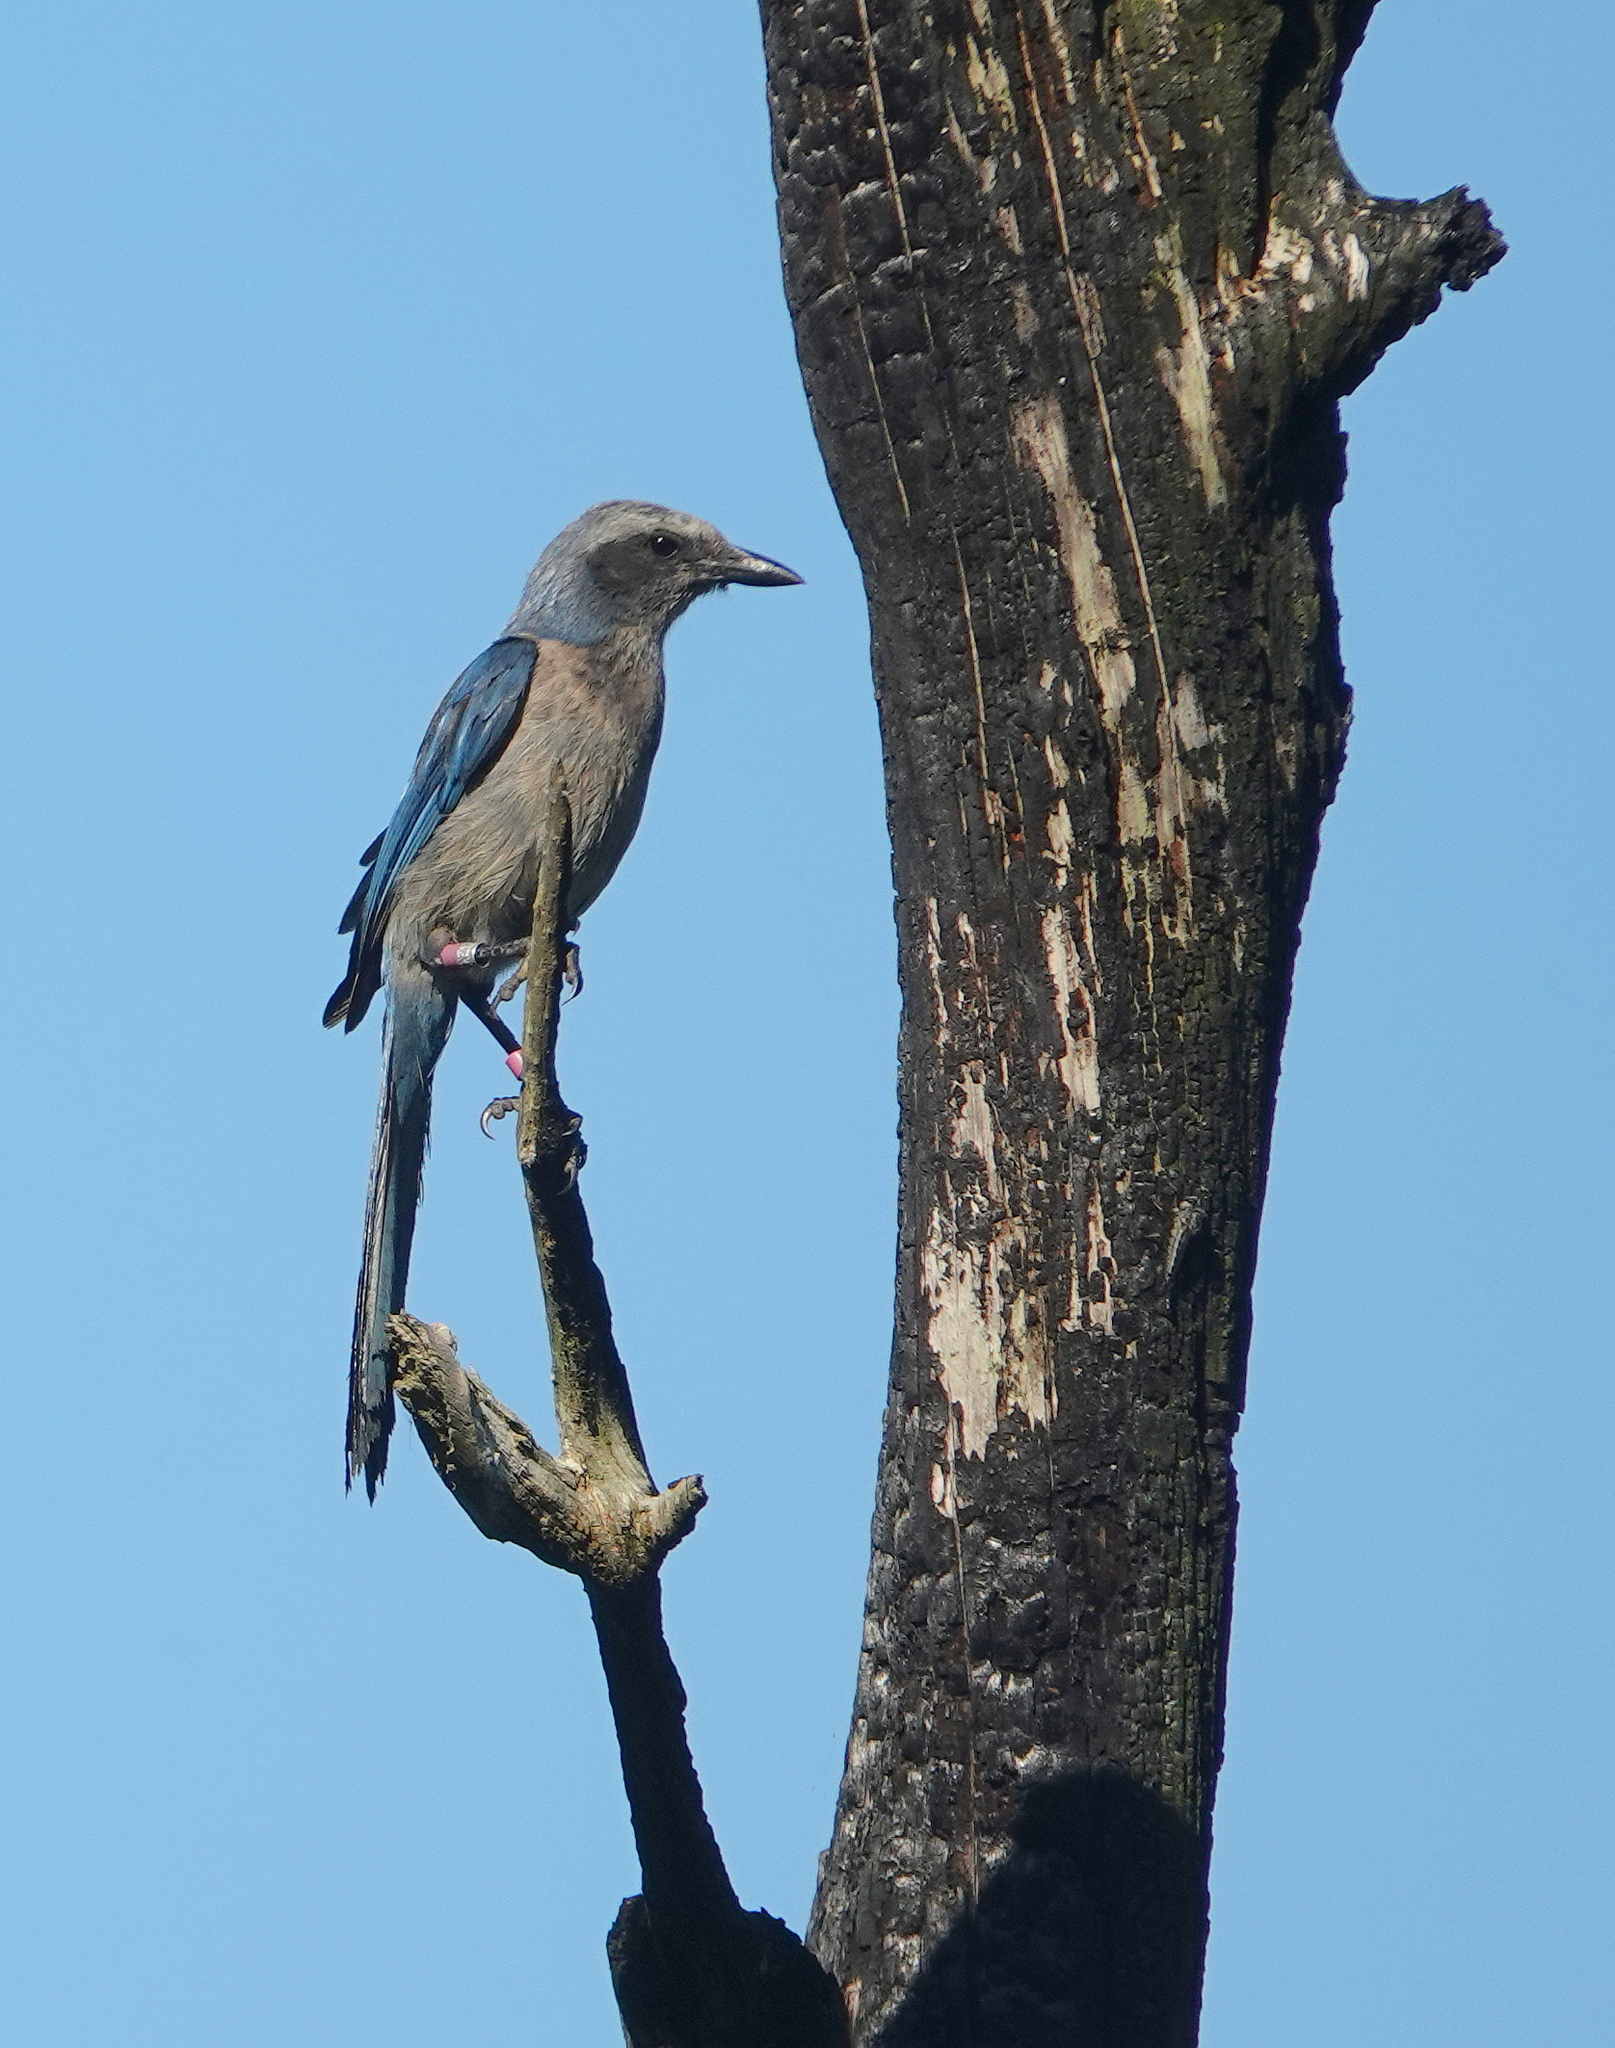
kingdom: Animalia
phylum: Chordata
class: Aves
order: Passeriformes
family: Corvidae
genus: Aphelocoma
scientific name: Aphelocoma coerulescens
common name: Florida scrub jay
